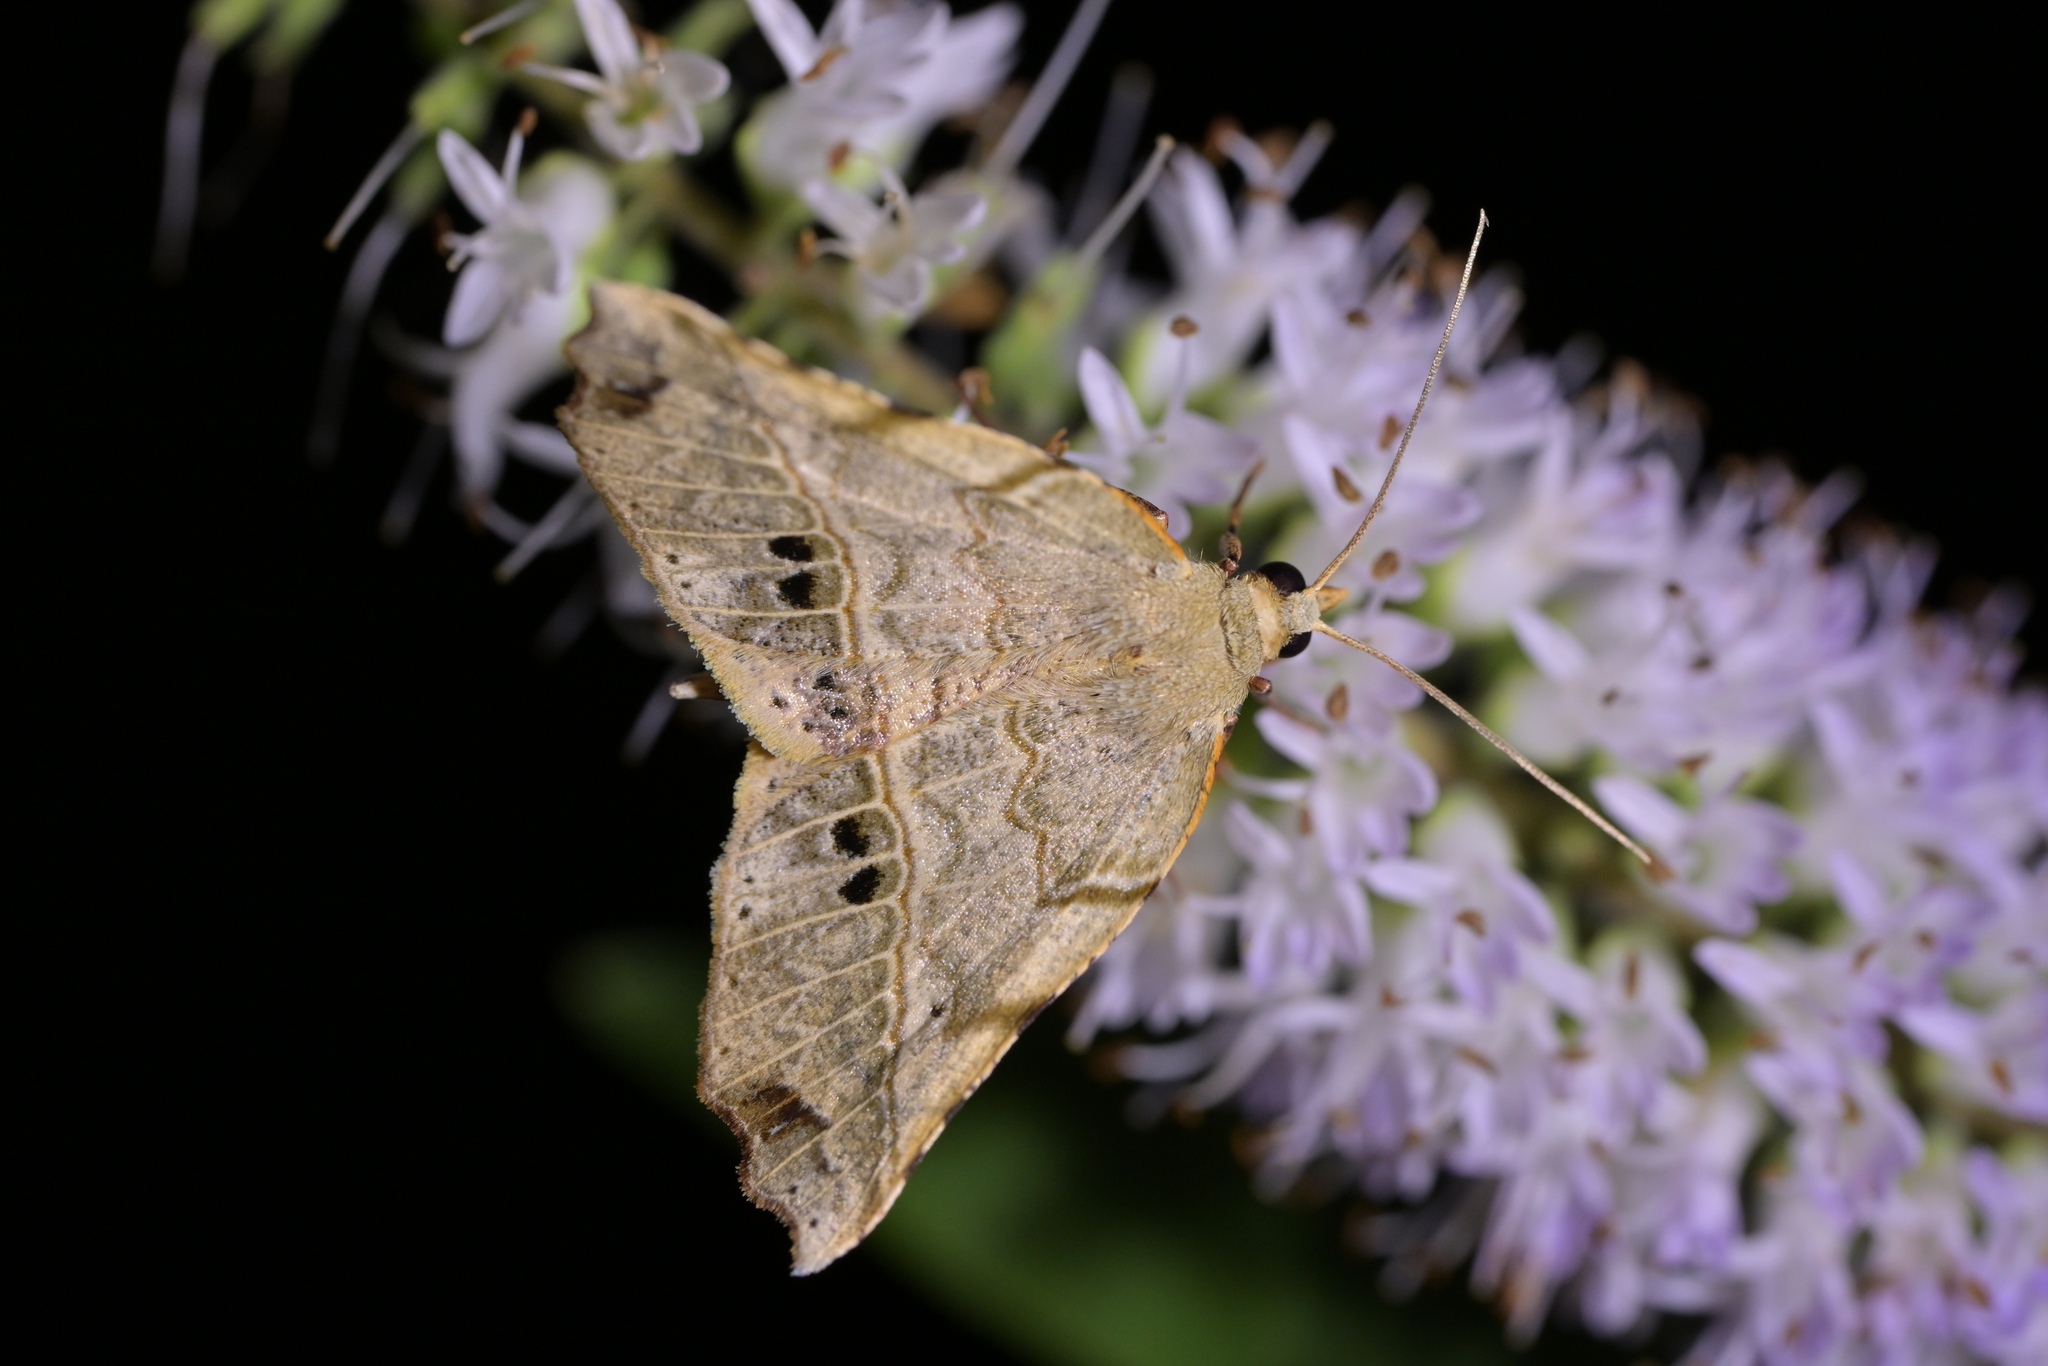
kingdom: Animalia
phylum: Arthropoda
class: Insecta
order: Lepidoptera
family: Geometridae
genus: Ischalis
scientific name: Ischalis gallaria
